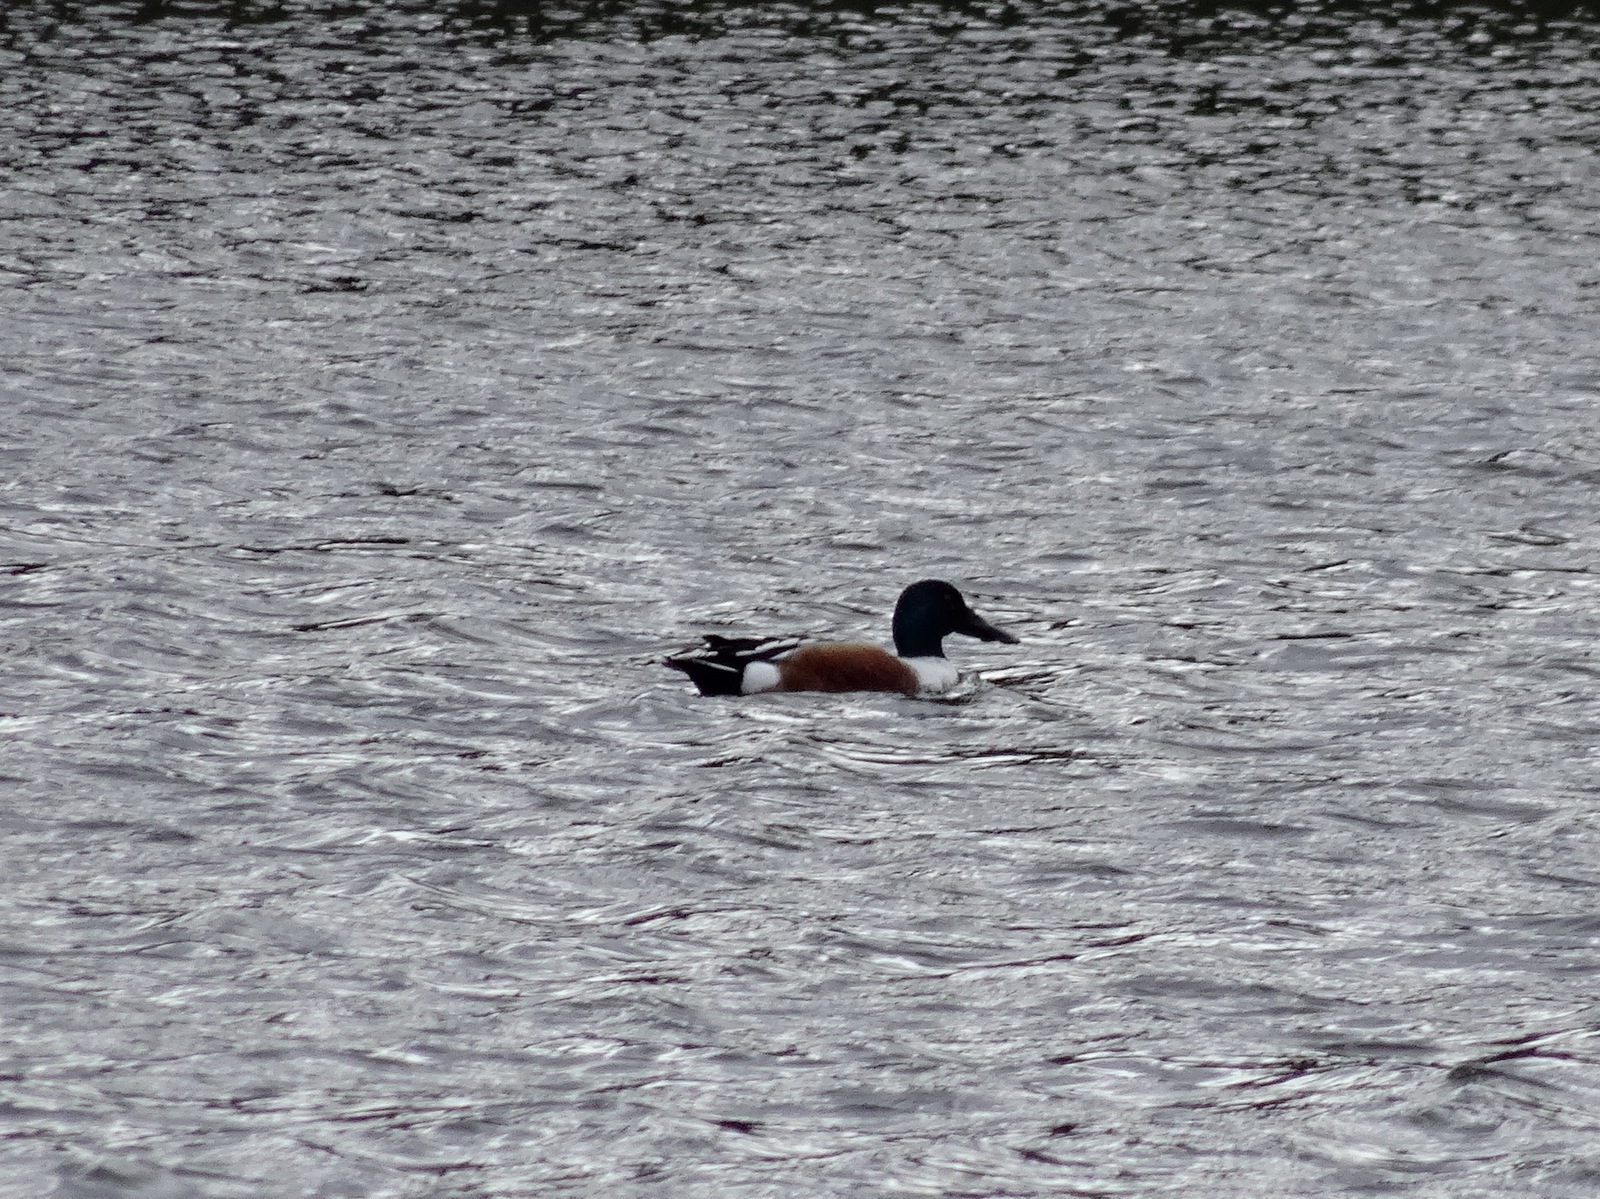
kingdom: Animalia
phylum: Chordata
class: Aves
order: Anseriformes
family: Anatidae
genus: Spatula
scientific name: Spatula clypeata
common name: Northern shoveler
